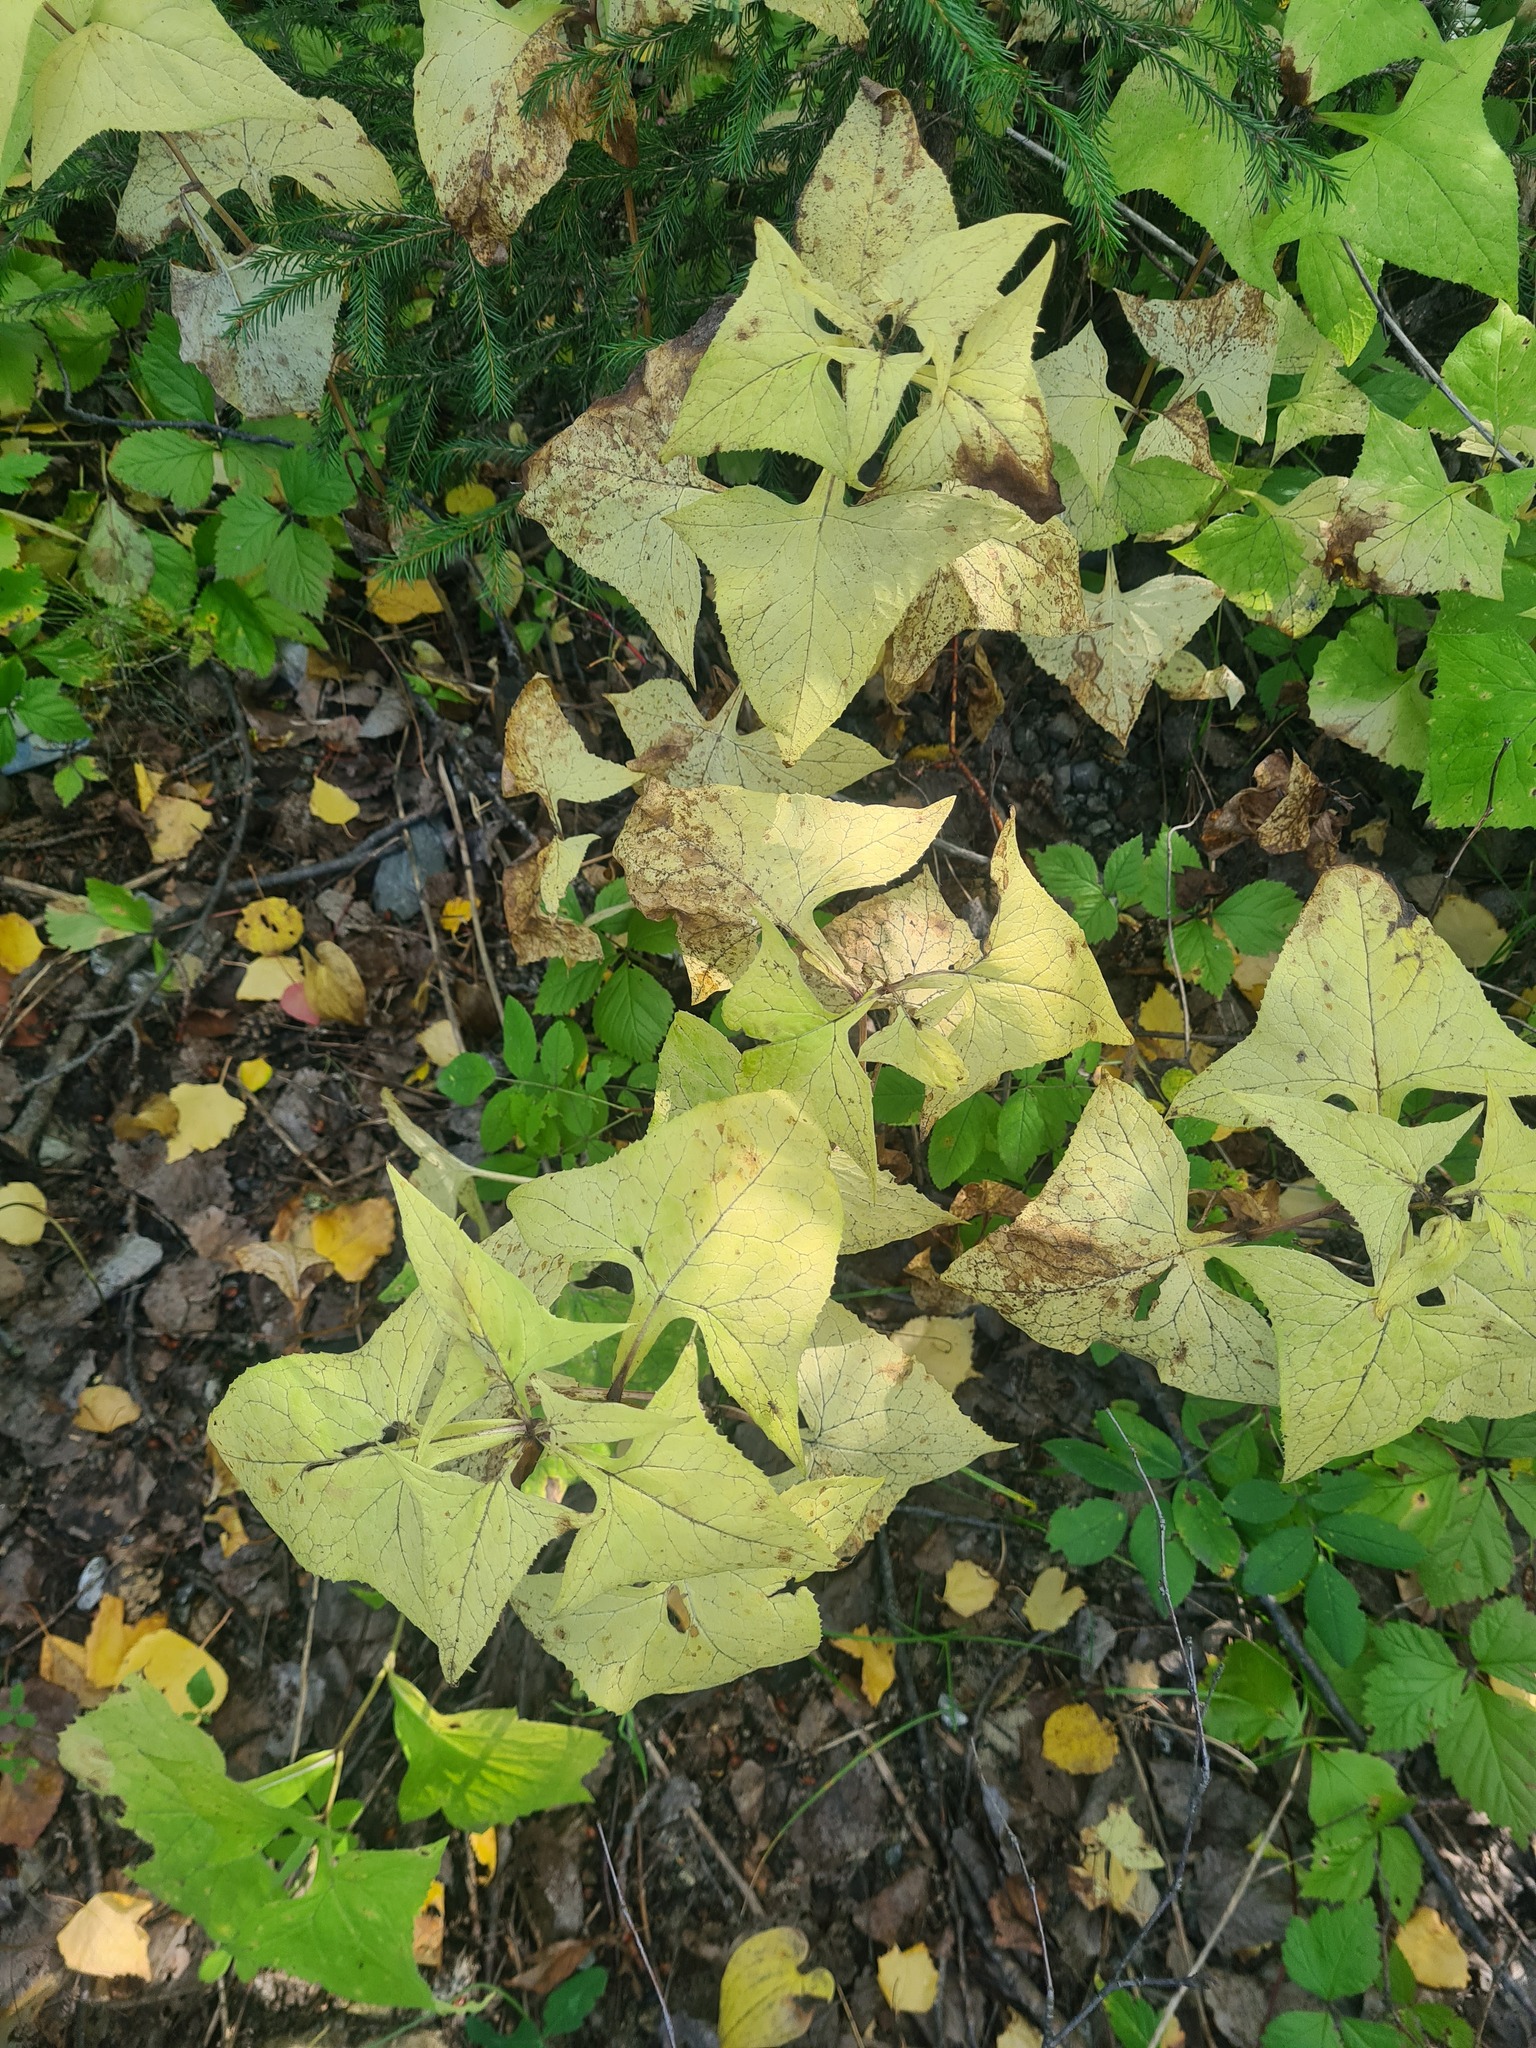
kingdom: Plantae
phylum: Tracheophyta
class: Magnoliopsida
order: Asterales
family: Asteraceae
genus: Parasenecio
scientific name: Parasenecio hastatus
